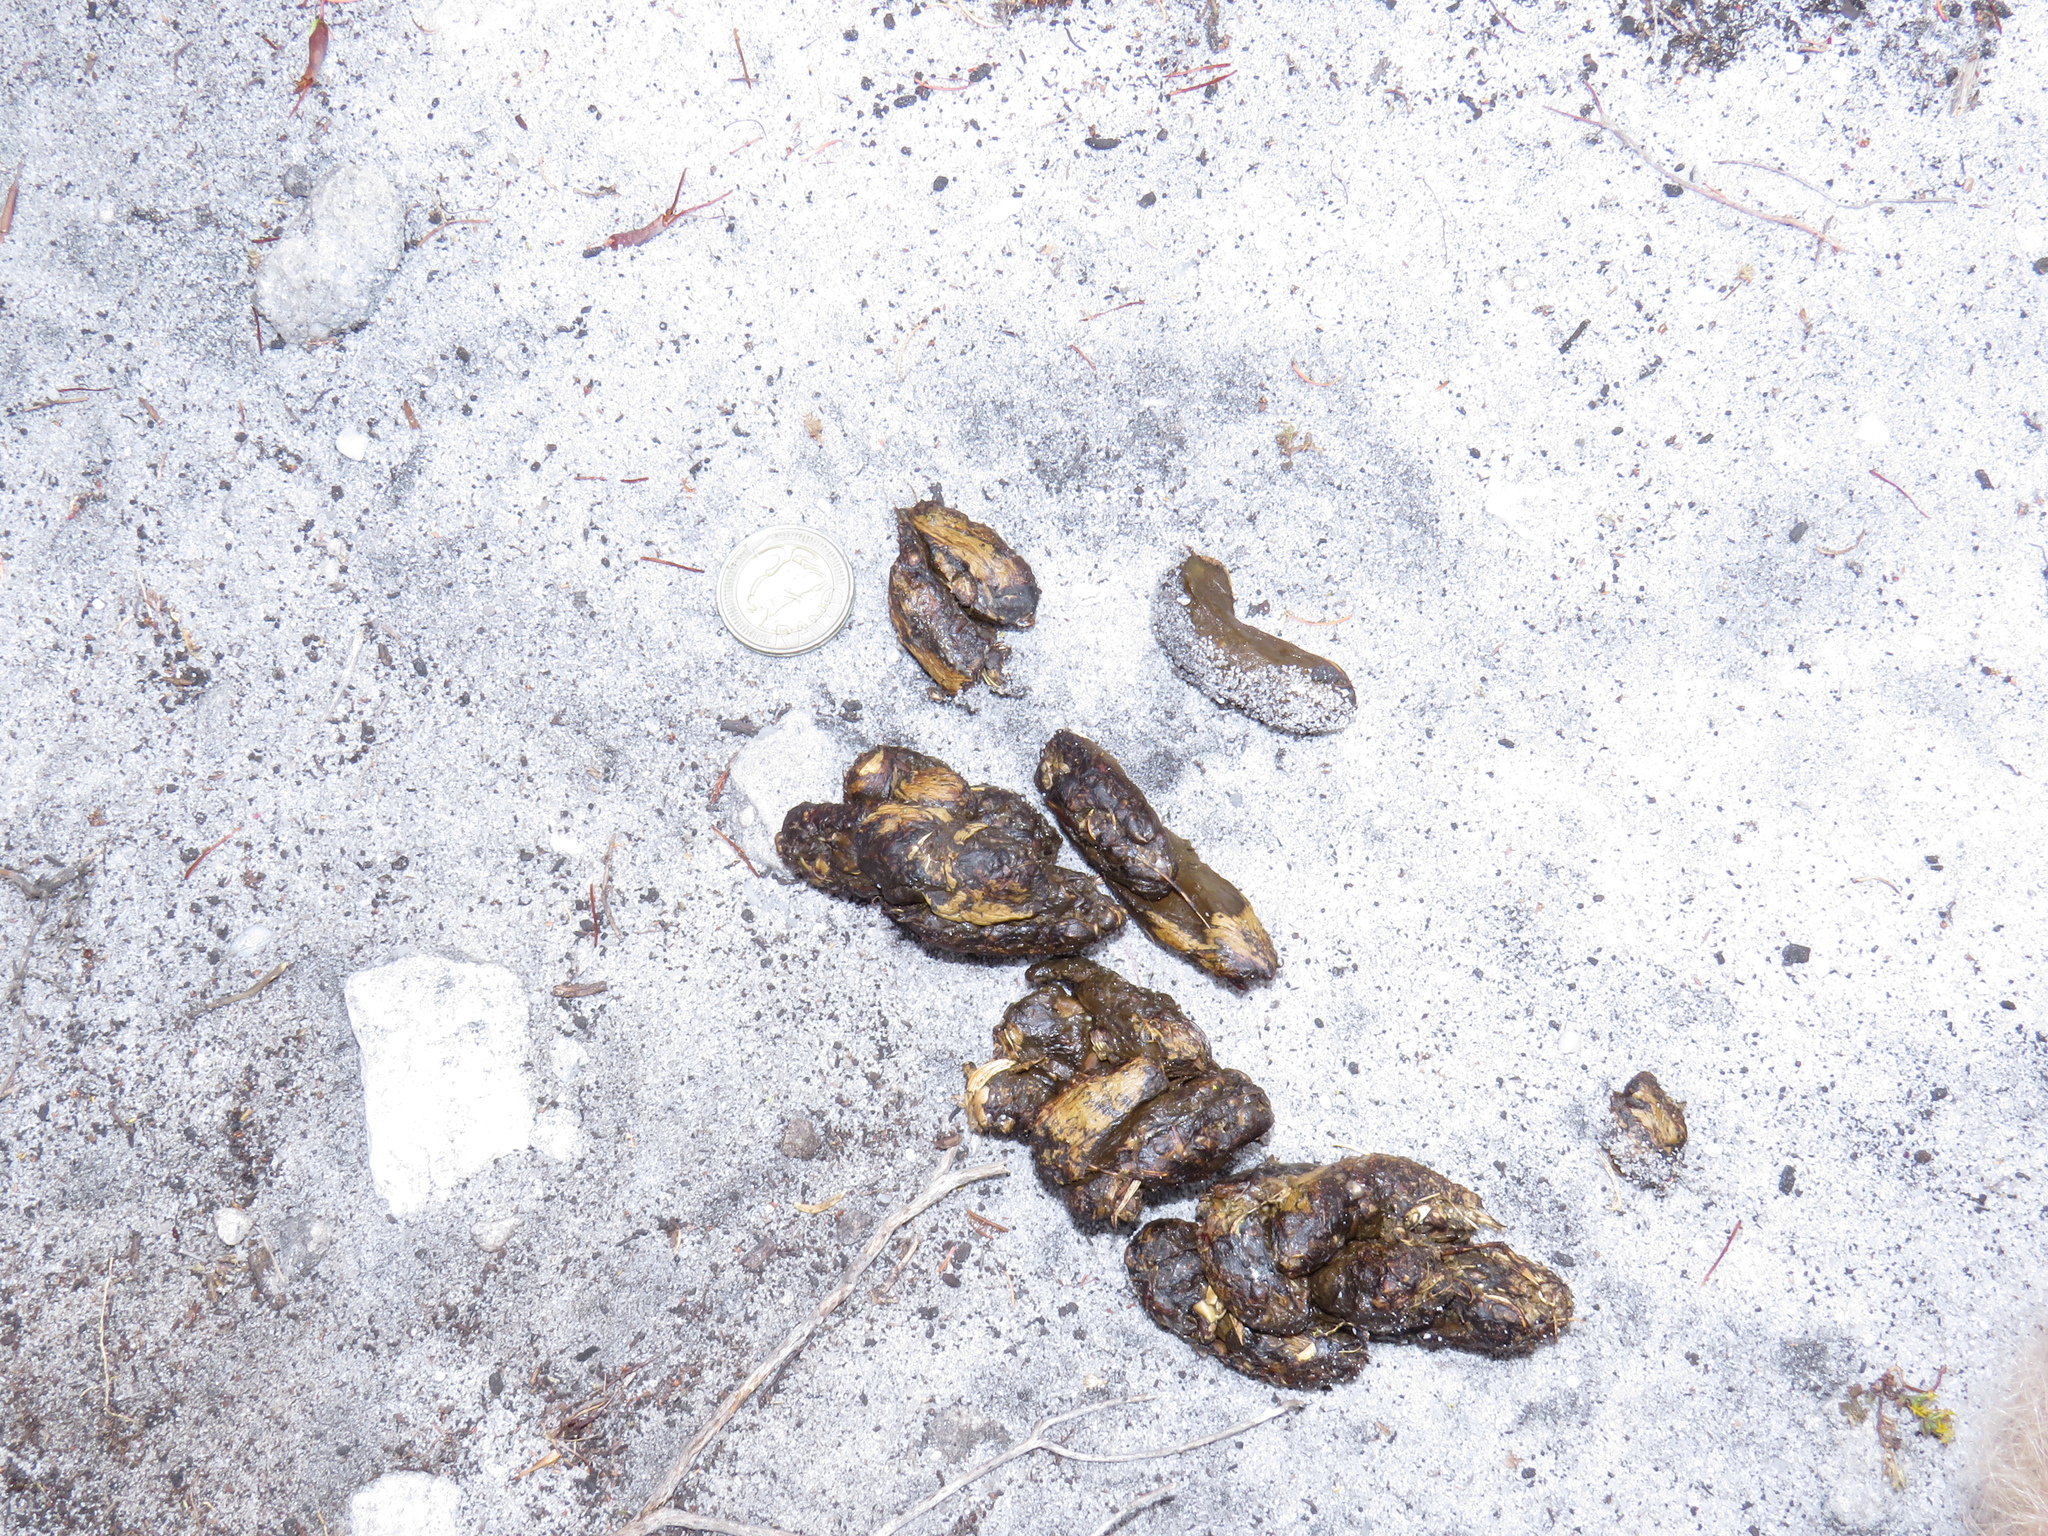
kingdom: Animalia
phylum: Chordata
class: Mammalia
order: Rodentia
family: Hystricidae
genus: Hystrix
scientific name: Hystrix africaeaustralis
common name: Cape porcupine
